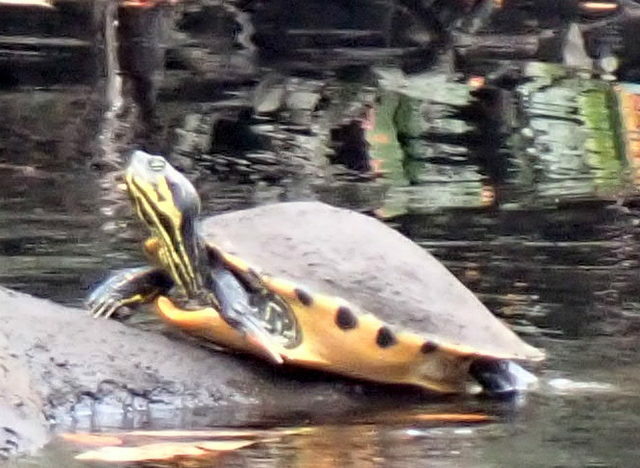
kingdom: Animalia
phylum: Chordata
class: Testudines
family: Emydidae
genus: Pseudemys
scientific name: Pseudemys concinna
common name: Eastern river cooter
